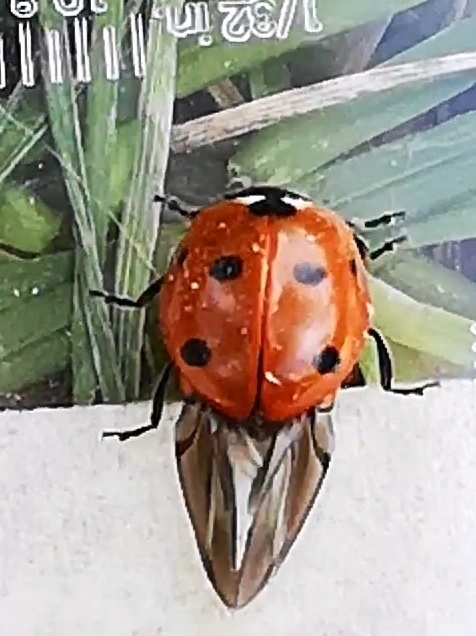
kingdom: Animalia
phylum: Arthropoda
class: Insecta
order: Coleoptera
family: Coccinellidae
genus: Coccinella
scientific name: Coccinella septempunctata
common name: Sevenspotted lady beetle
